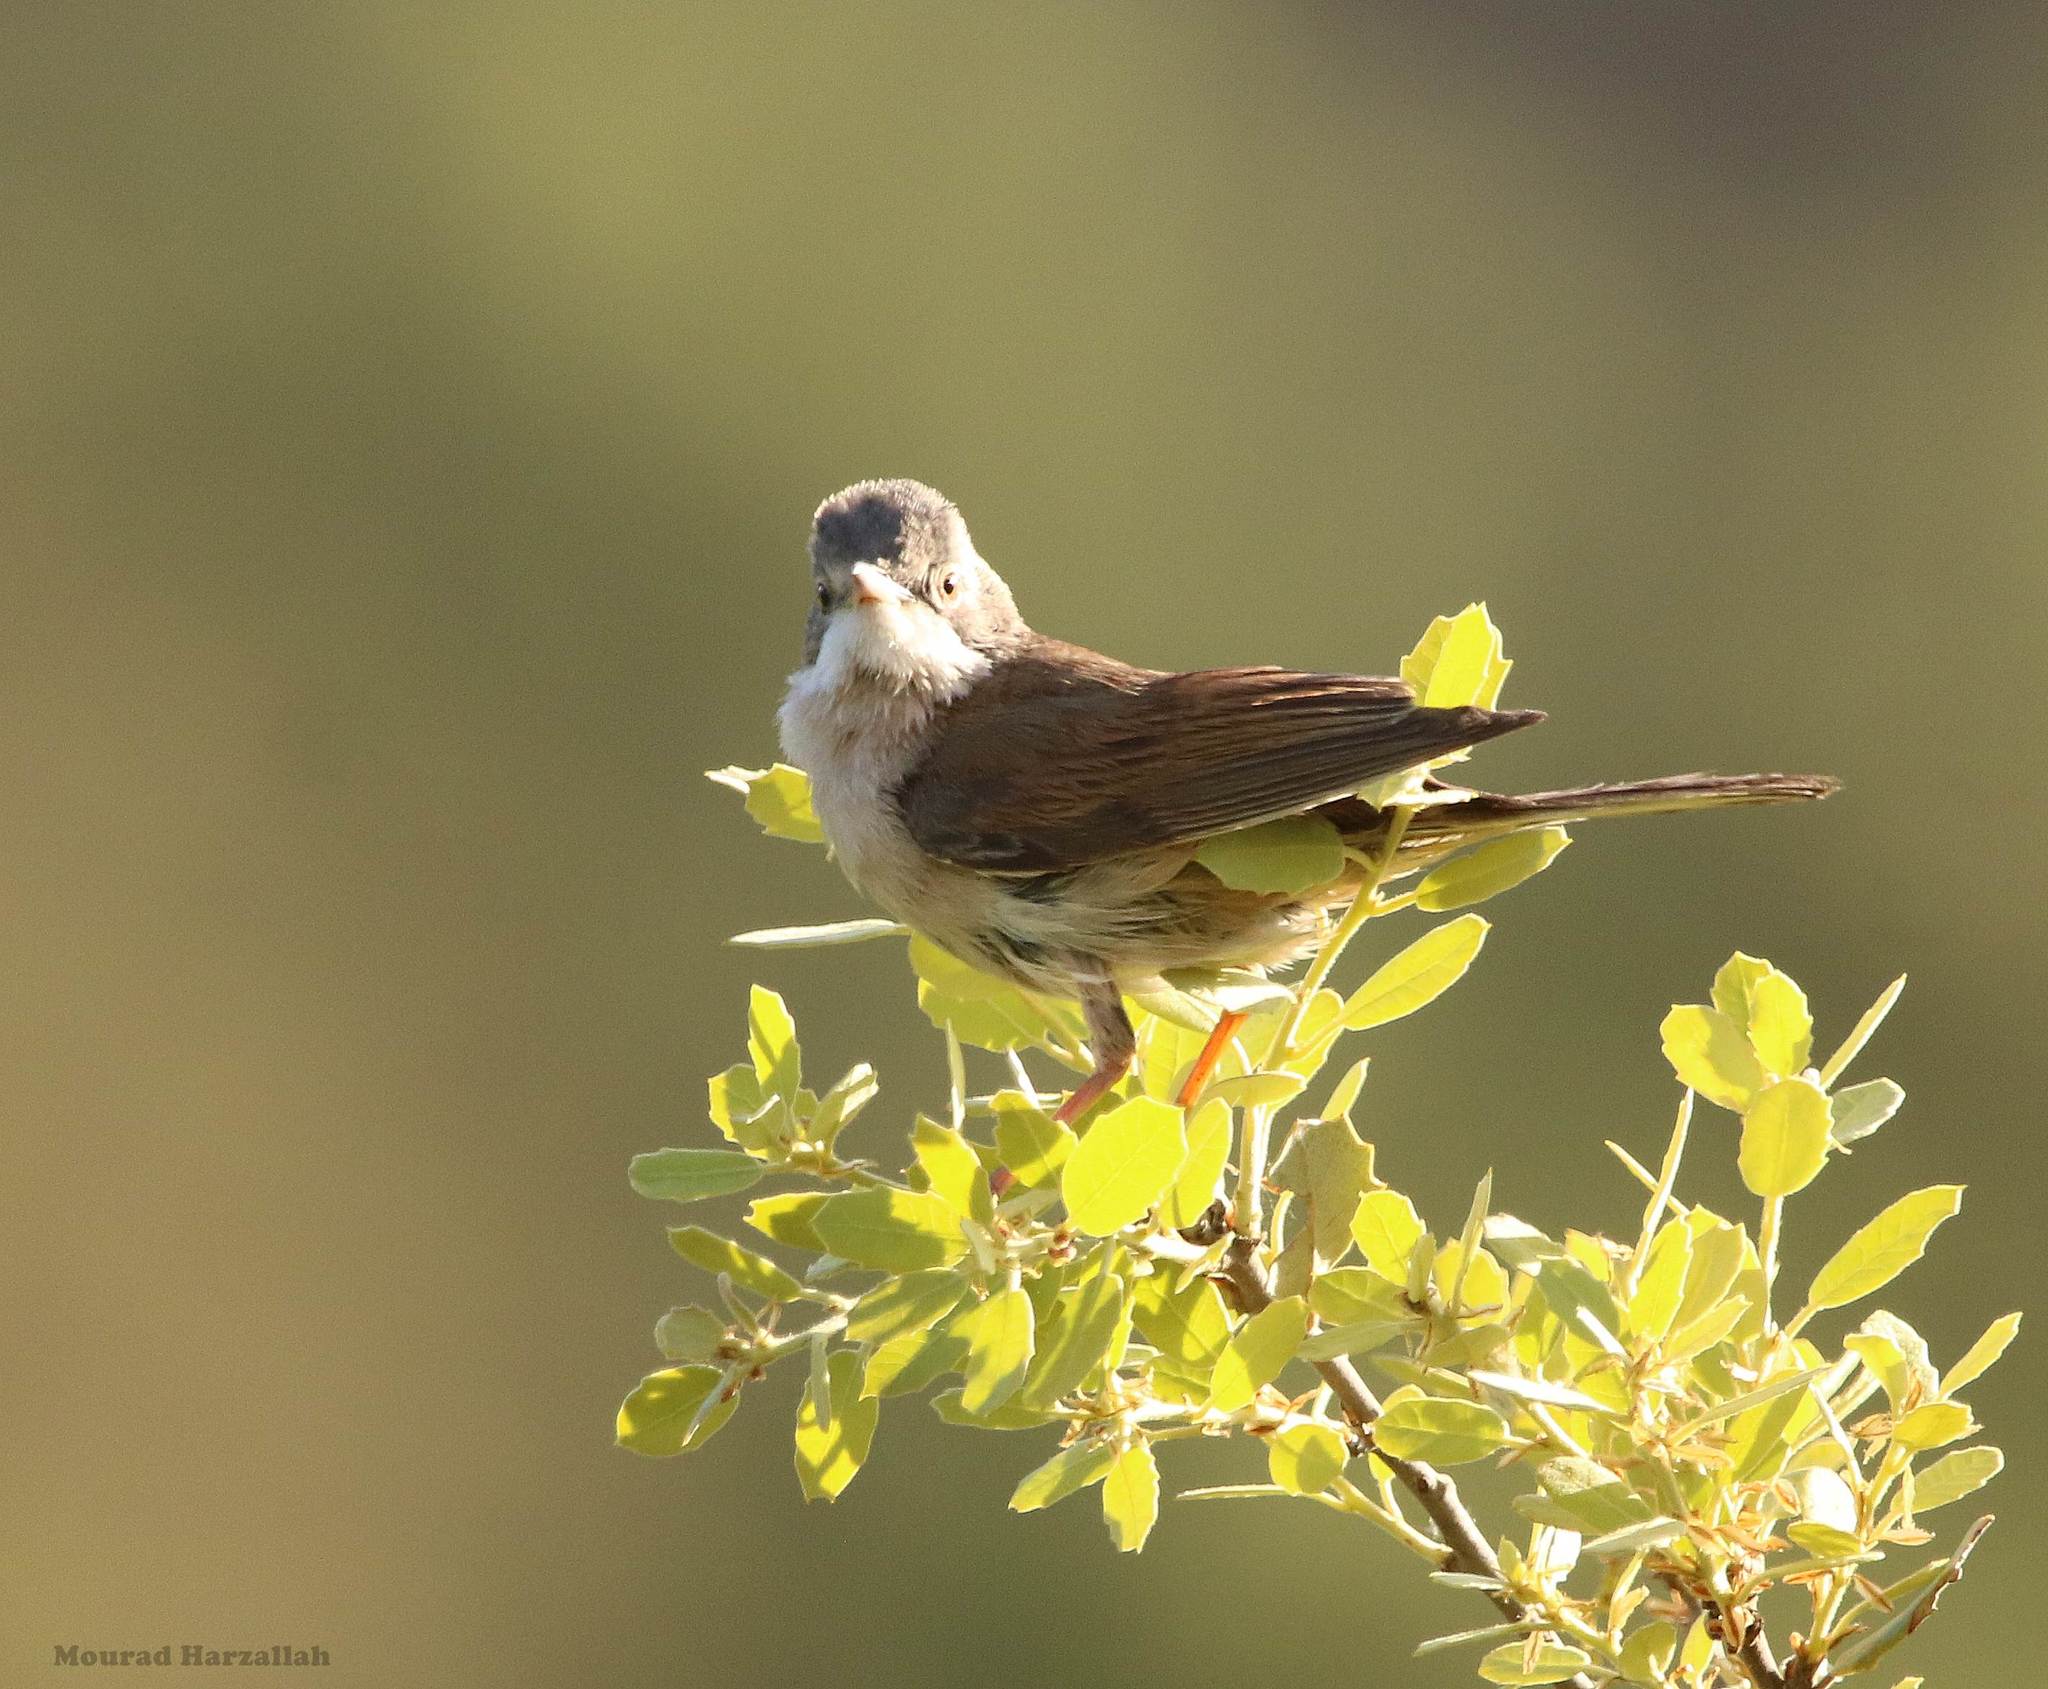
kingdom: Animalia
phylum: Chordata
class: Aves
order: Passeriformes
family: Sylviidae
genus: Sylvia
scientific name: Sylvia communis
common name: Common whitethroat
